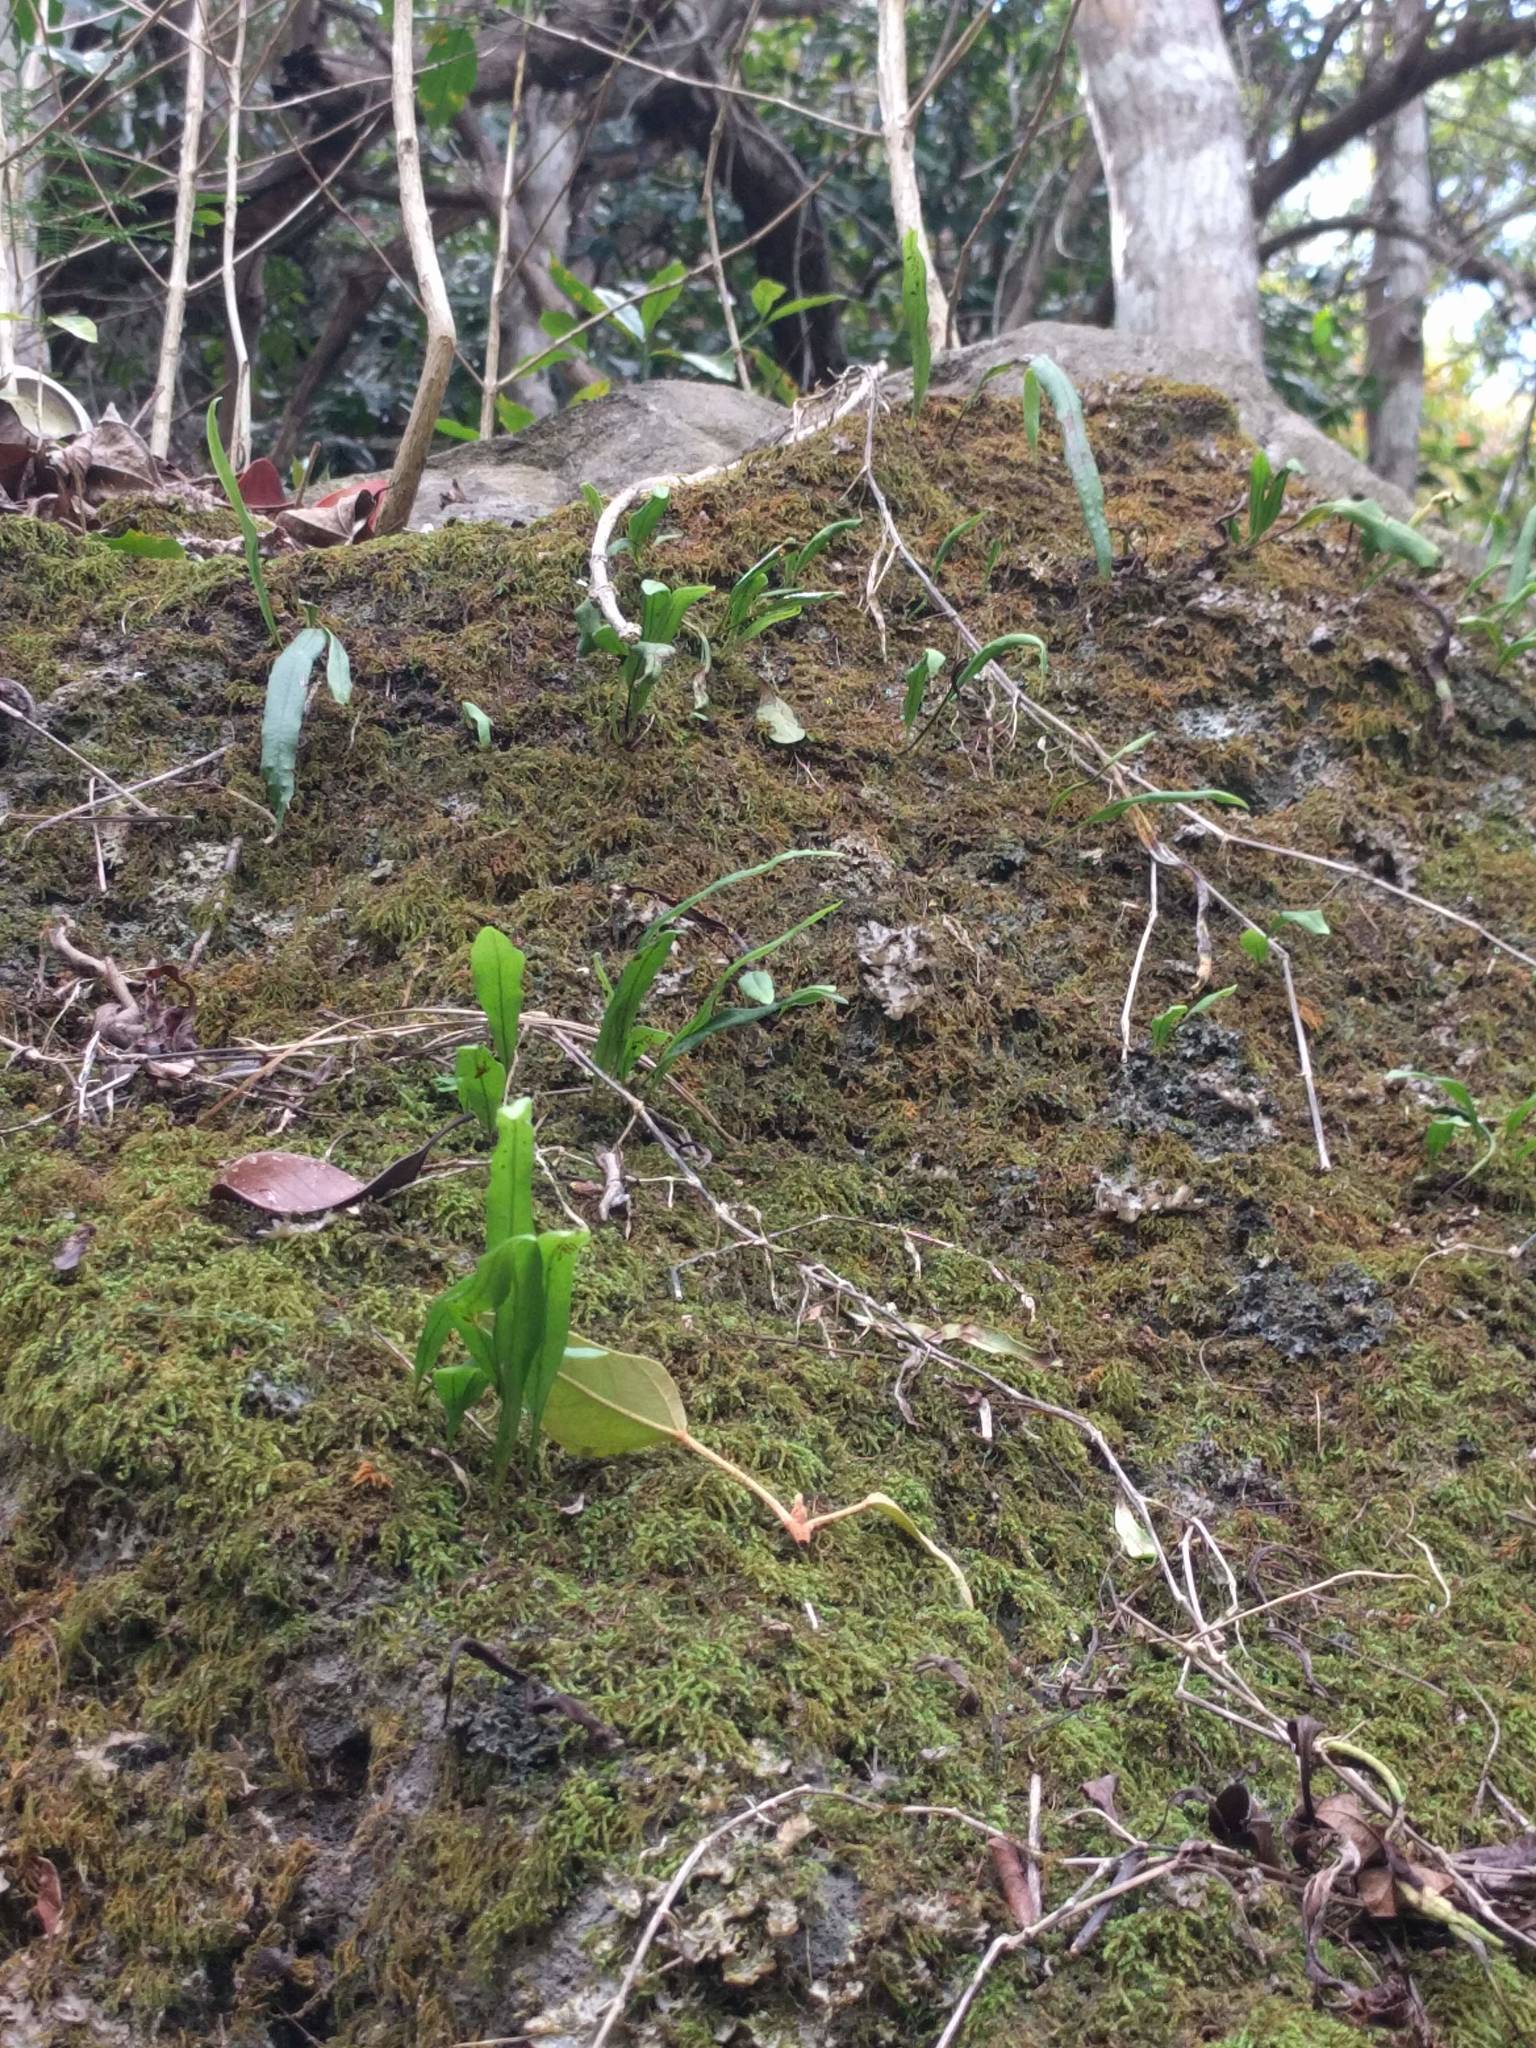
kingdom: Plantae
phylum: Tracheophyta
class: Polypodiopsida
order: Polypodiales
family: Polypodiaceae
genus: Lepisorus
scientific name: Lepisorus thunbergianus
